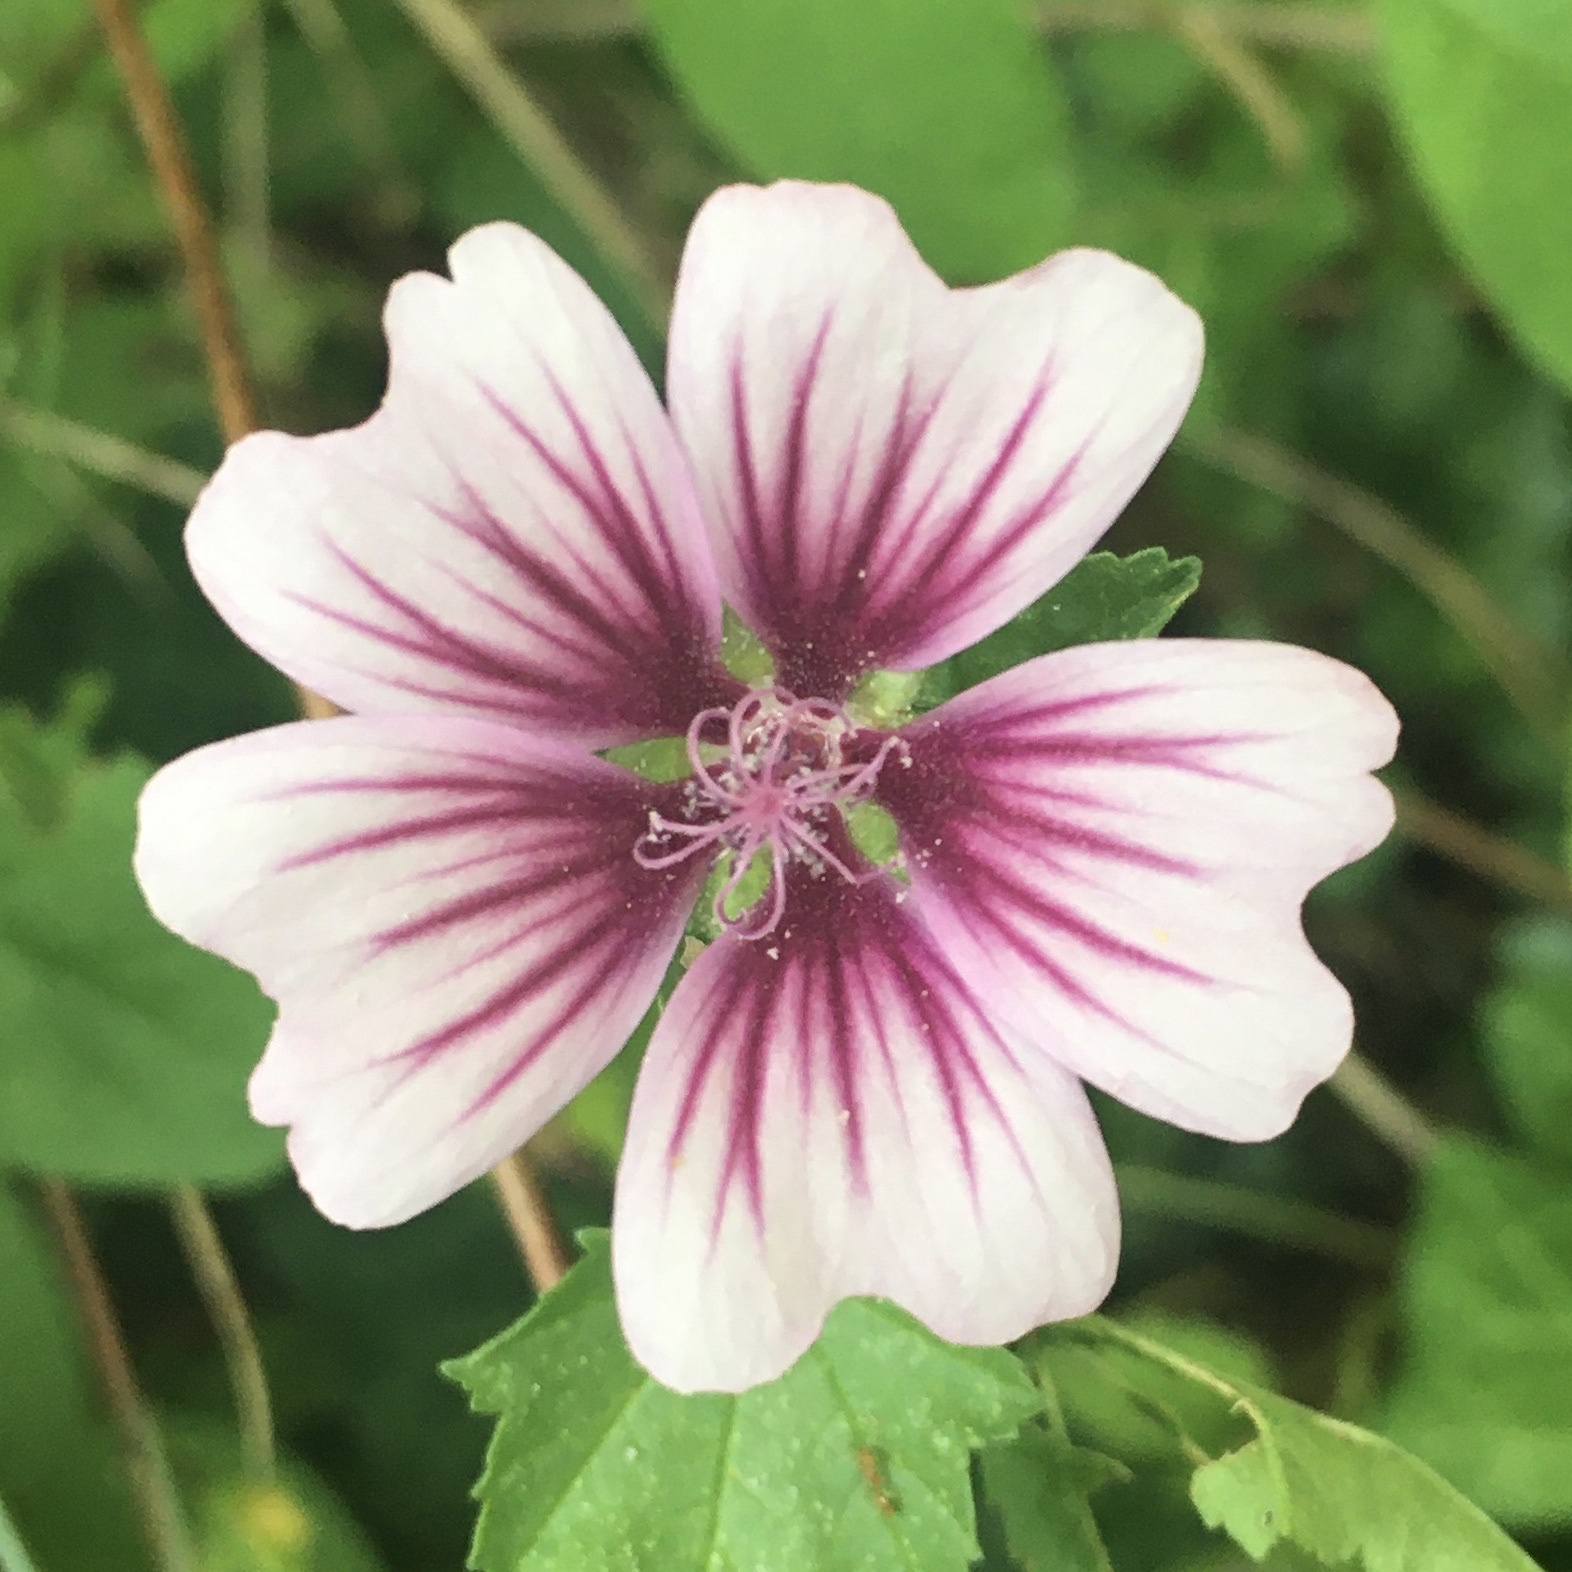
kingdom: Plantae
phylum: Tracheophyta
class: Magnoliopsida
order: Malvales
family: Malvaceae
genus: Malva
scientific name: Malva sylvestris
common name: Common mallow
